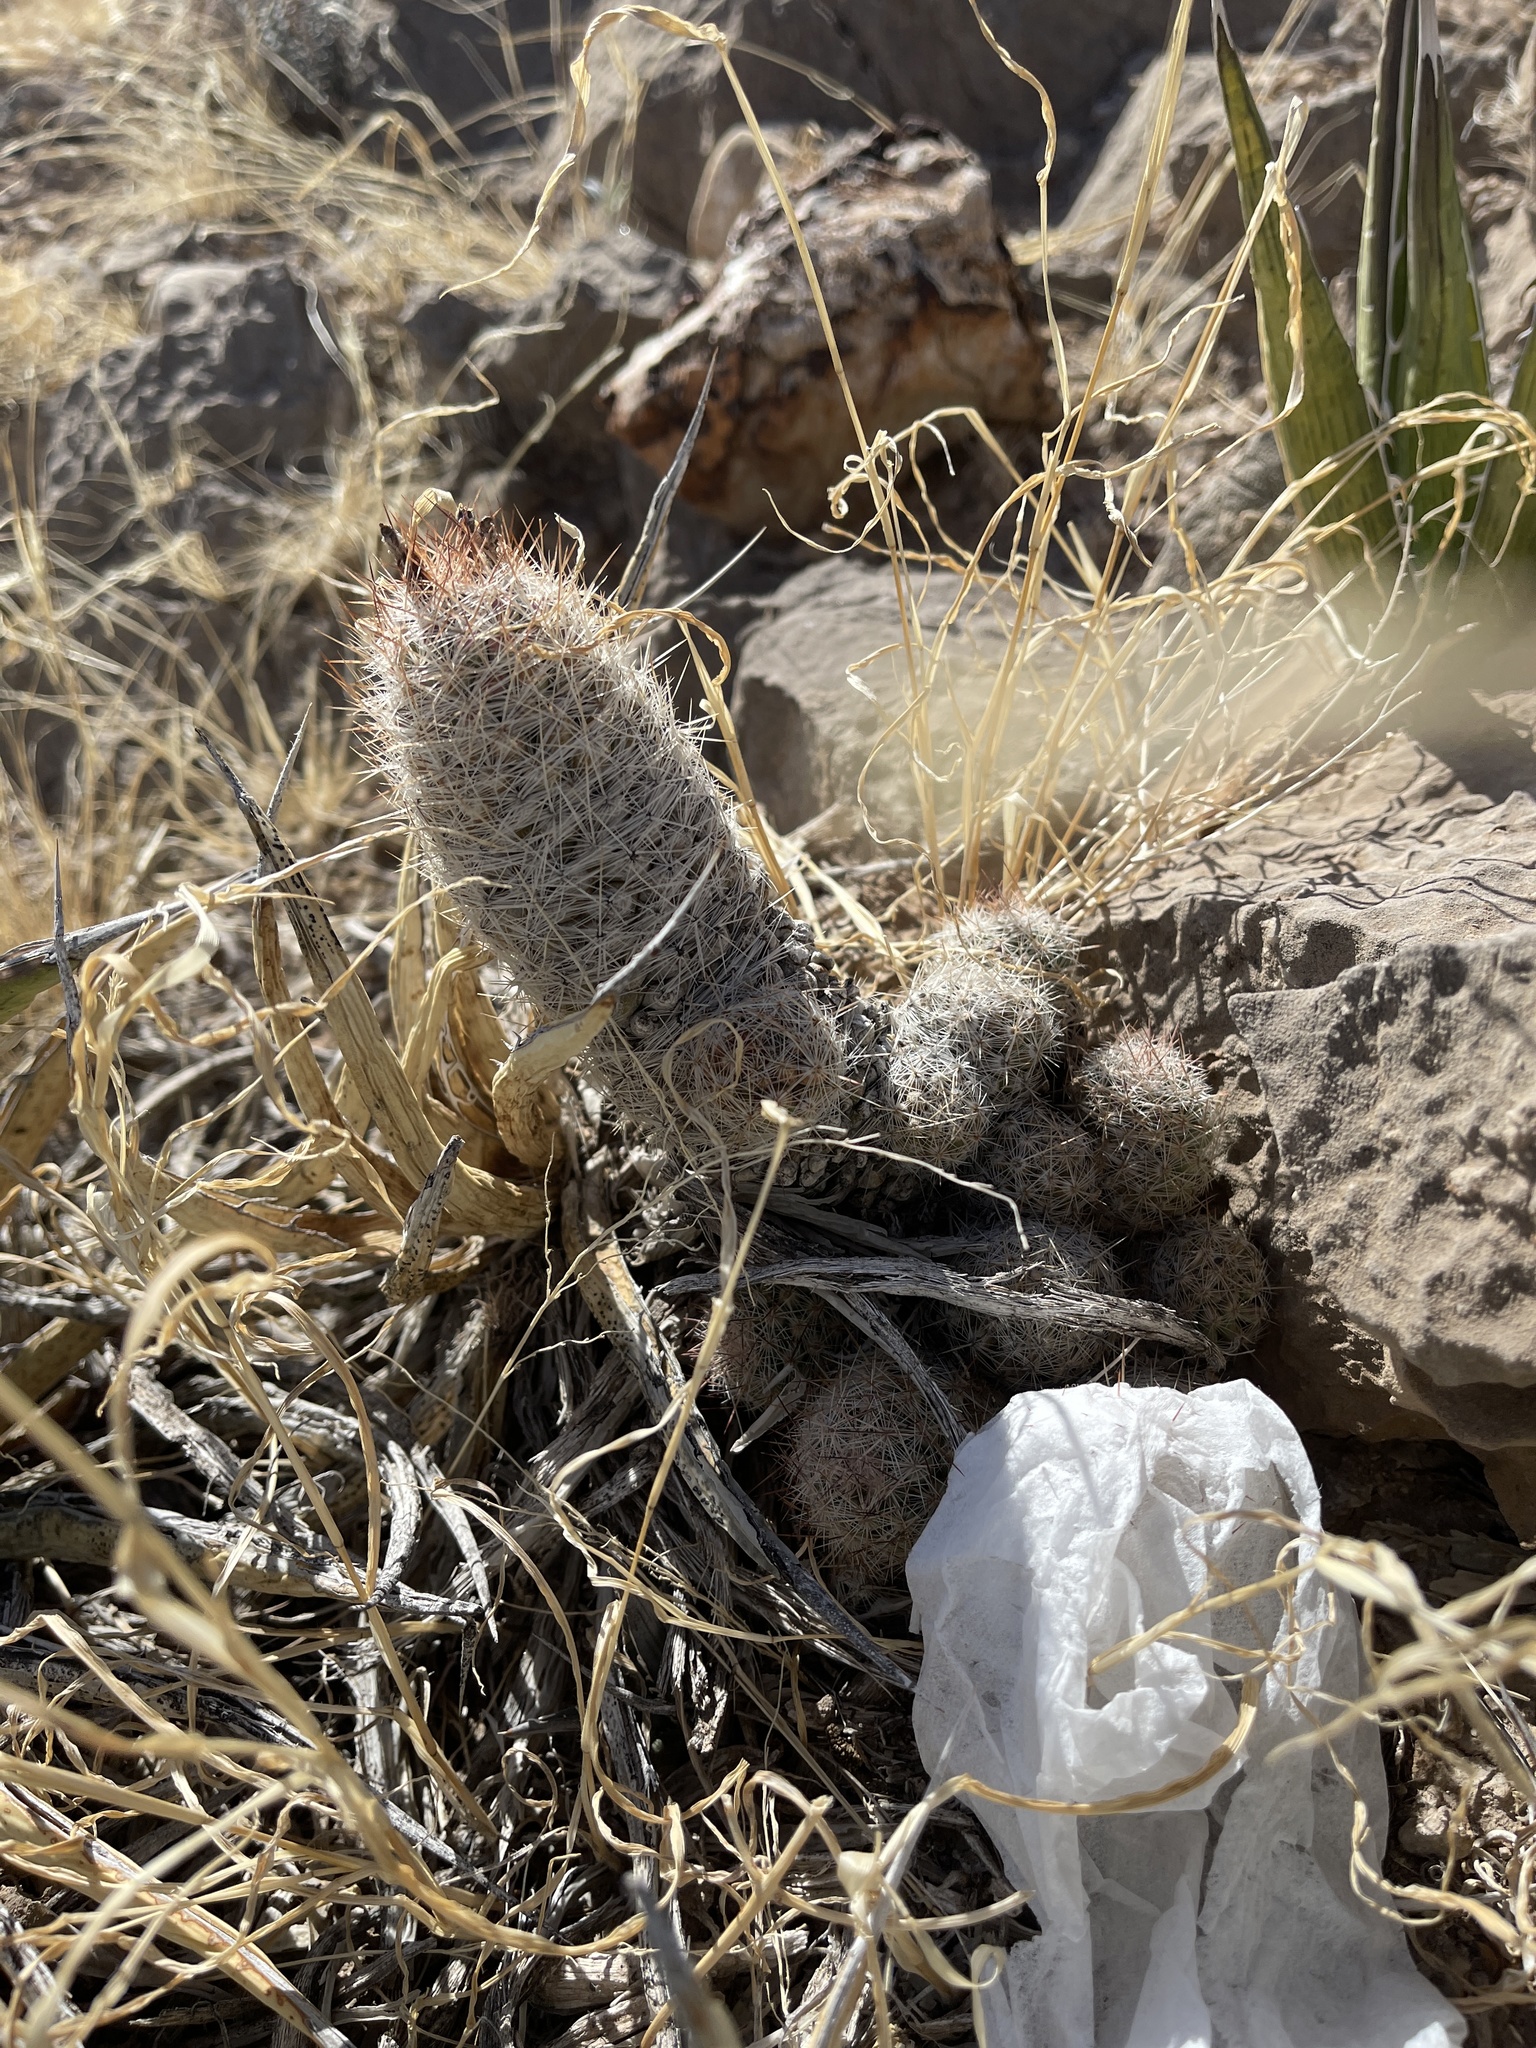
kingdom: Plantae
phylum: Tracheophyta
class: Magnoliopsida
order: Caryophyllales
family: Cactaceae
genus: Pelecyphora
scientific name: Pelecyphora tuberculosa
